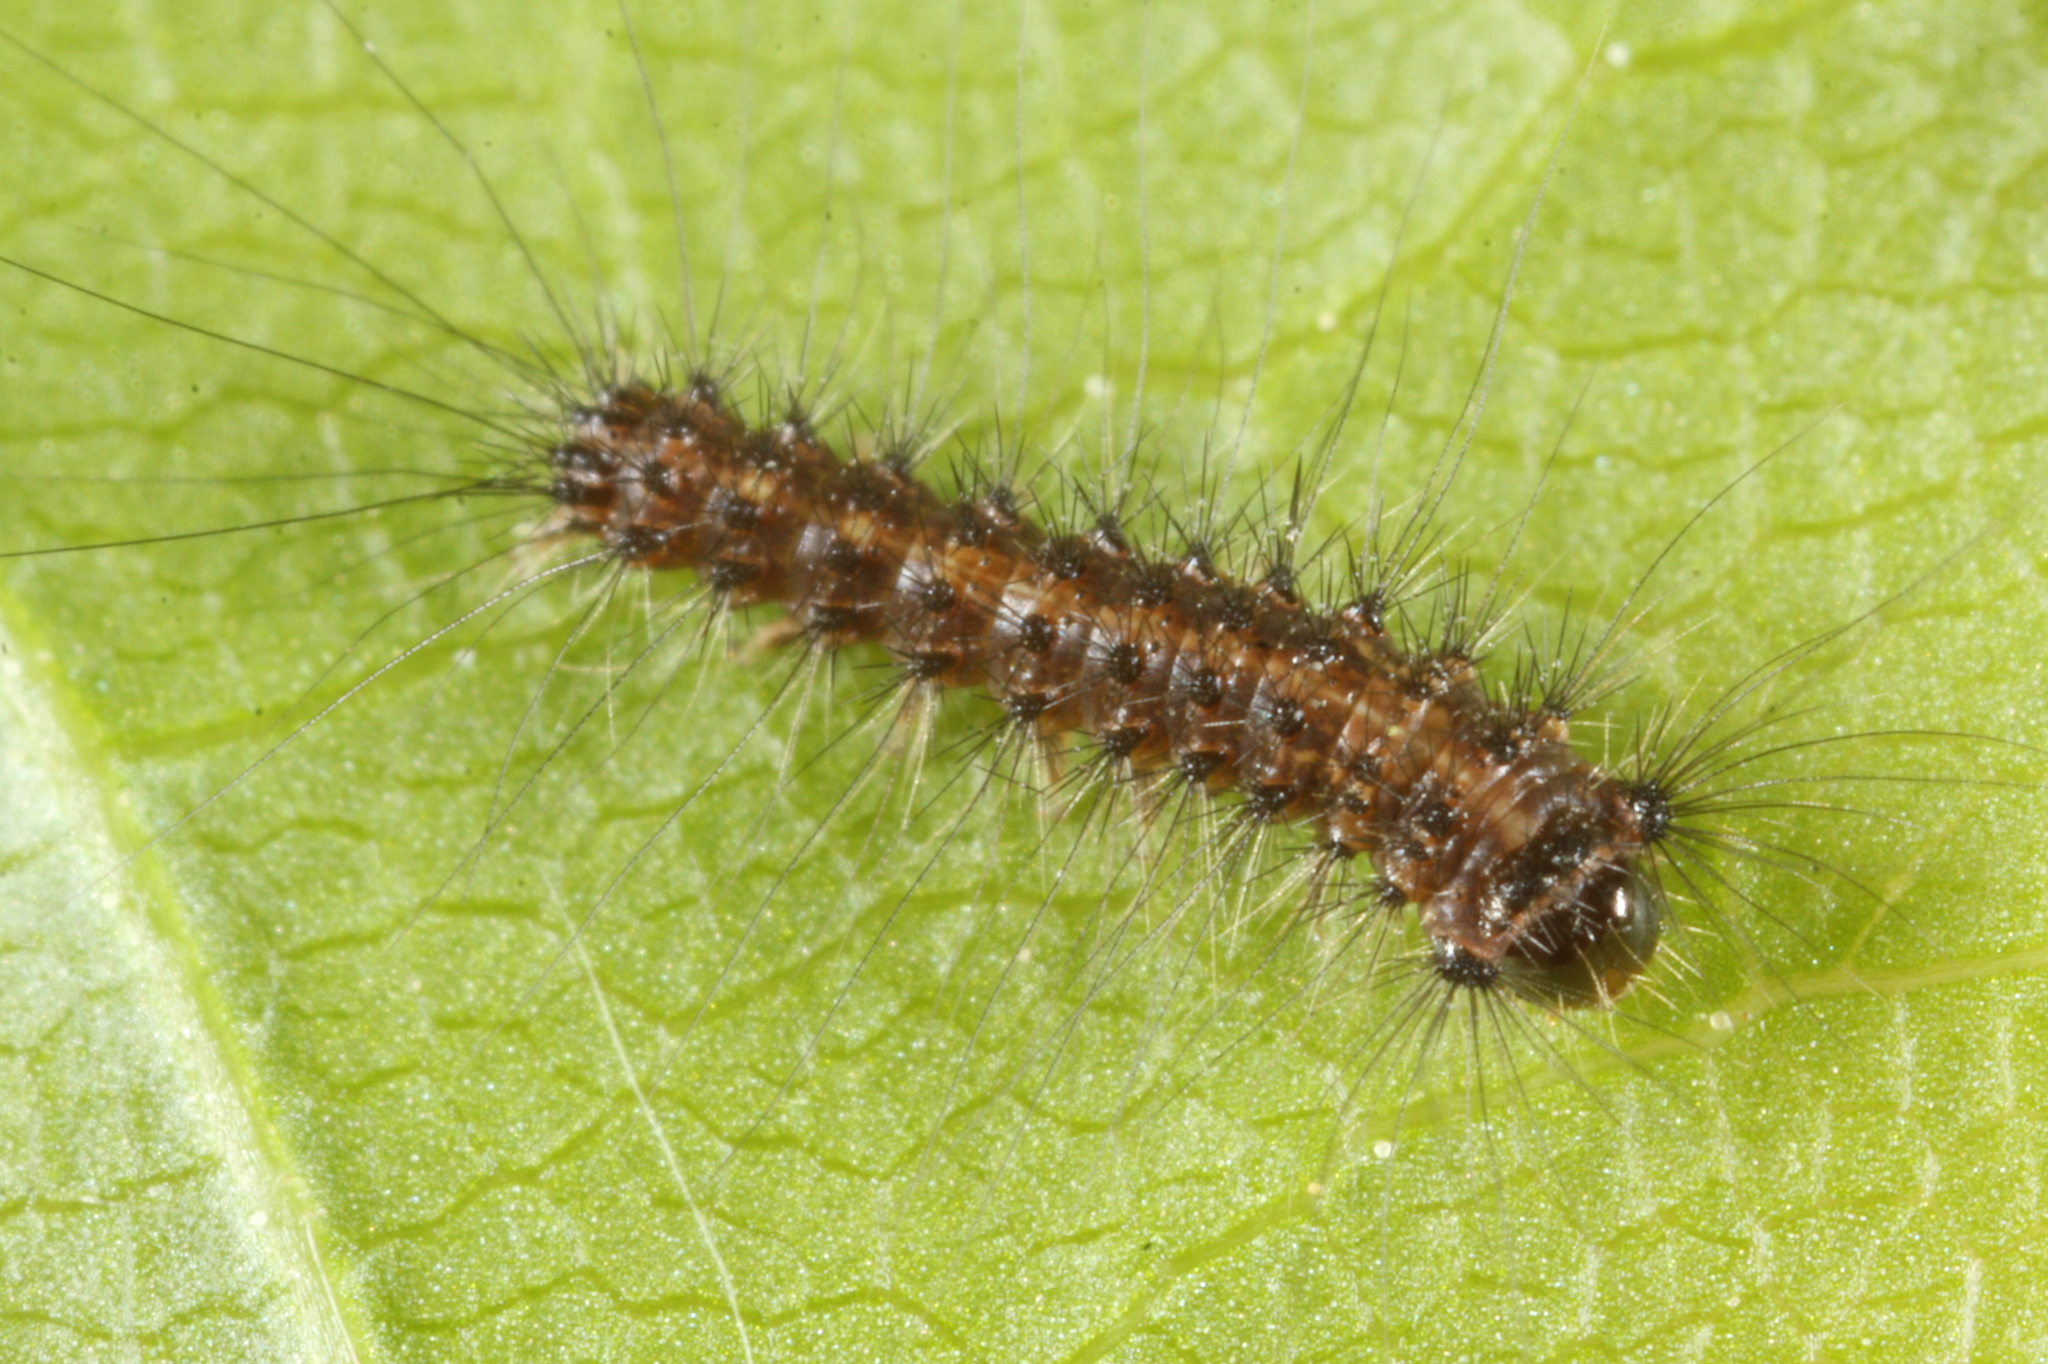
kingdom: Animalia
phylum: Arthropoda
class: Insecta
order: Lepidoptera
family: Erebidae
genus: Lymantria
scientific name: Lymantria monacha
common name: Black arches
